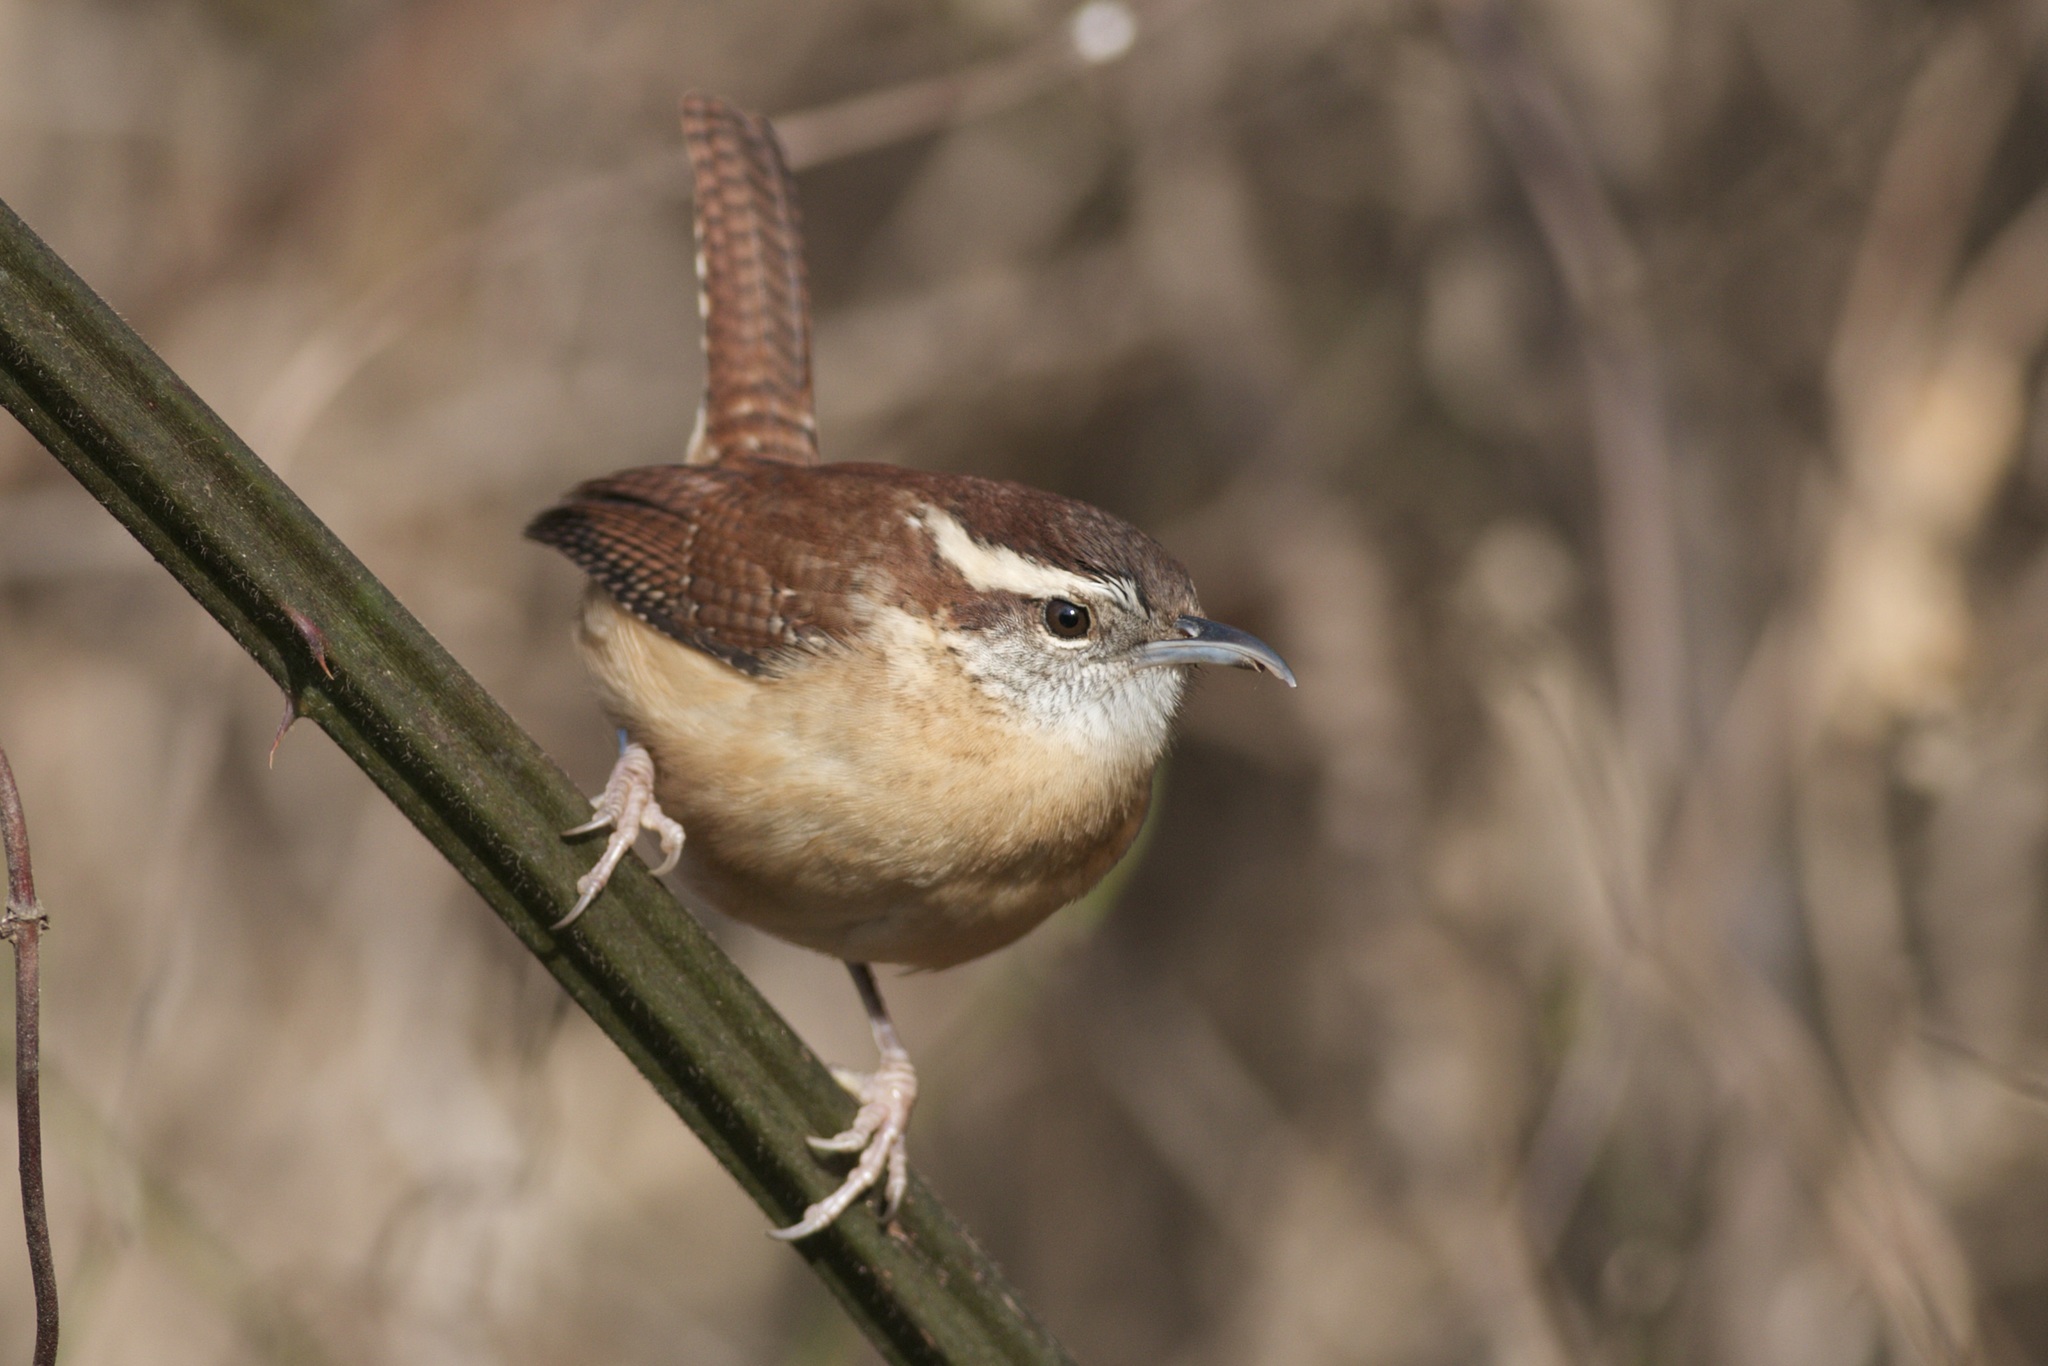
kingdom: Animalia
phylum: Chordata
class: Aves
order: Passeriformes
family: Troglodytidae
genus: Thryothorus
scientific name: Thryothorus ludovicianus
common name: Carolina wren
